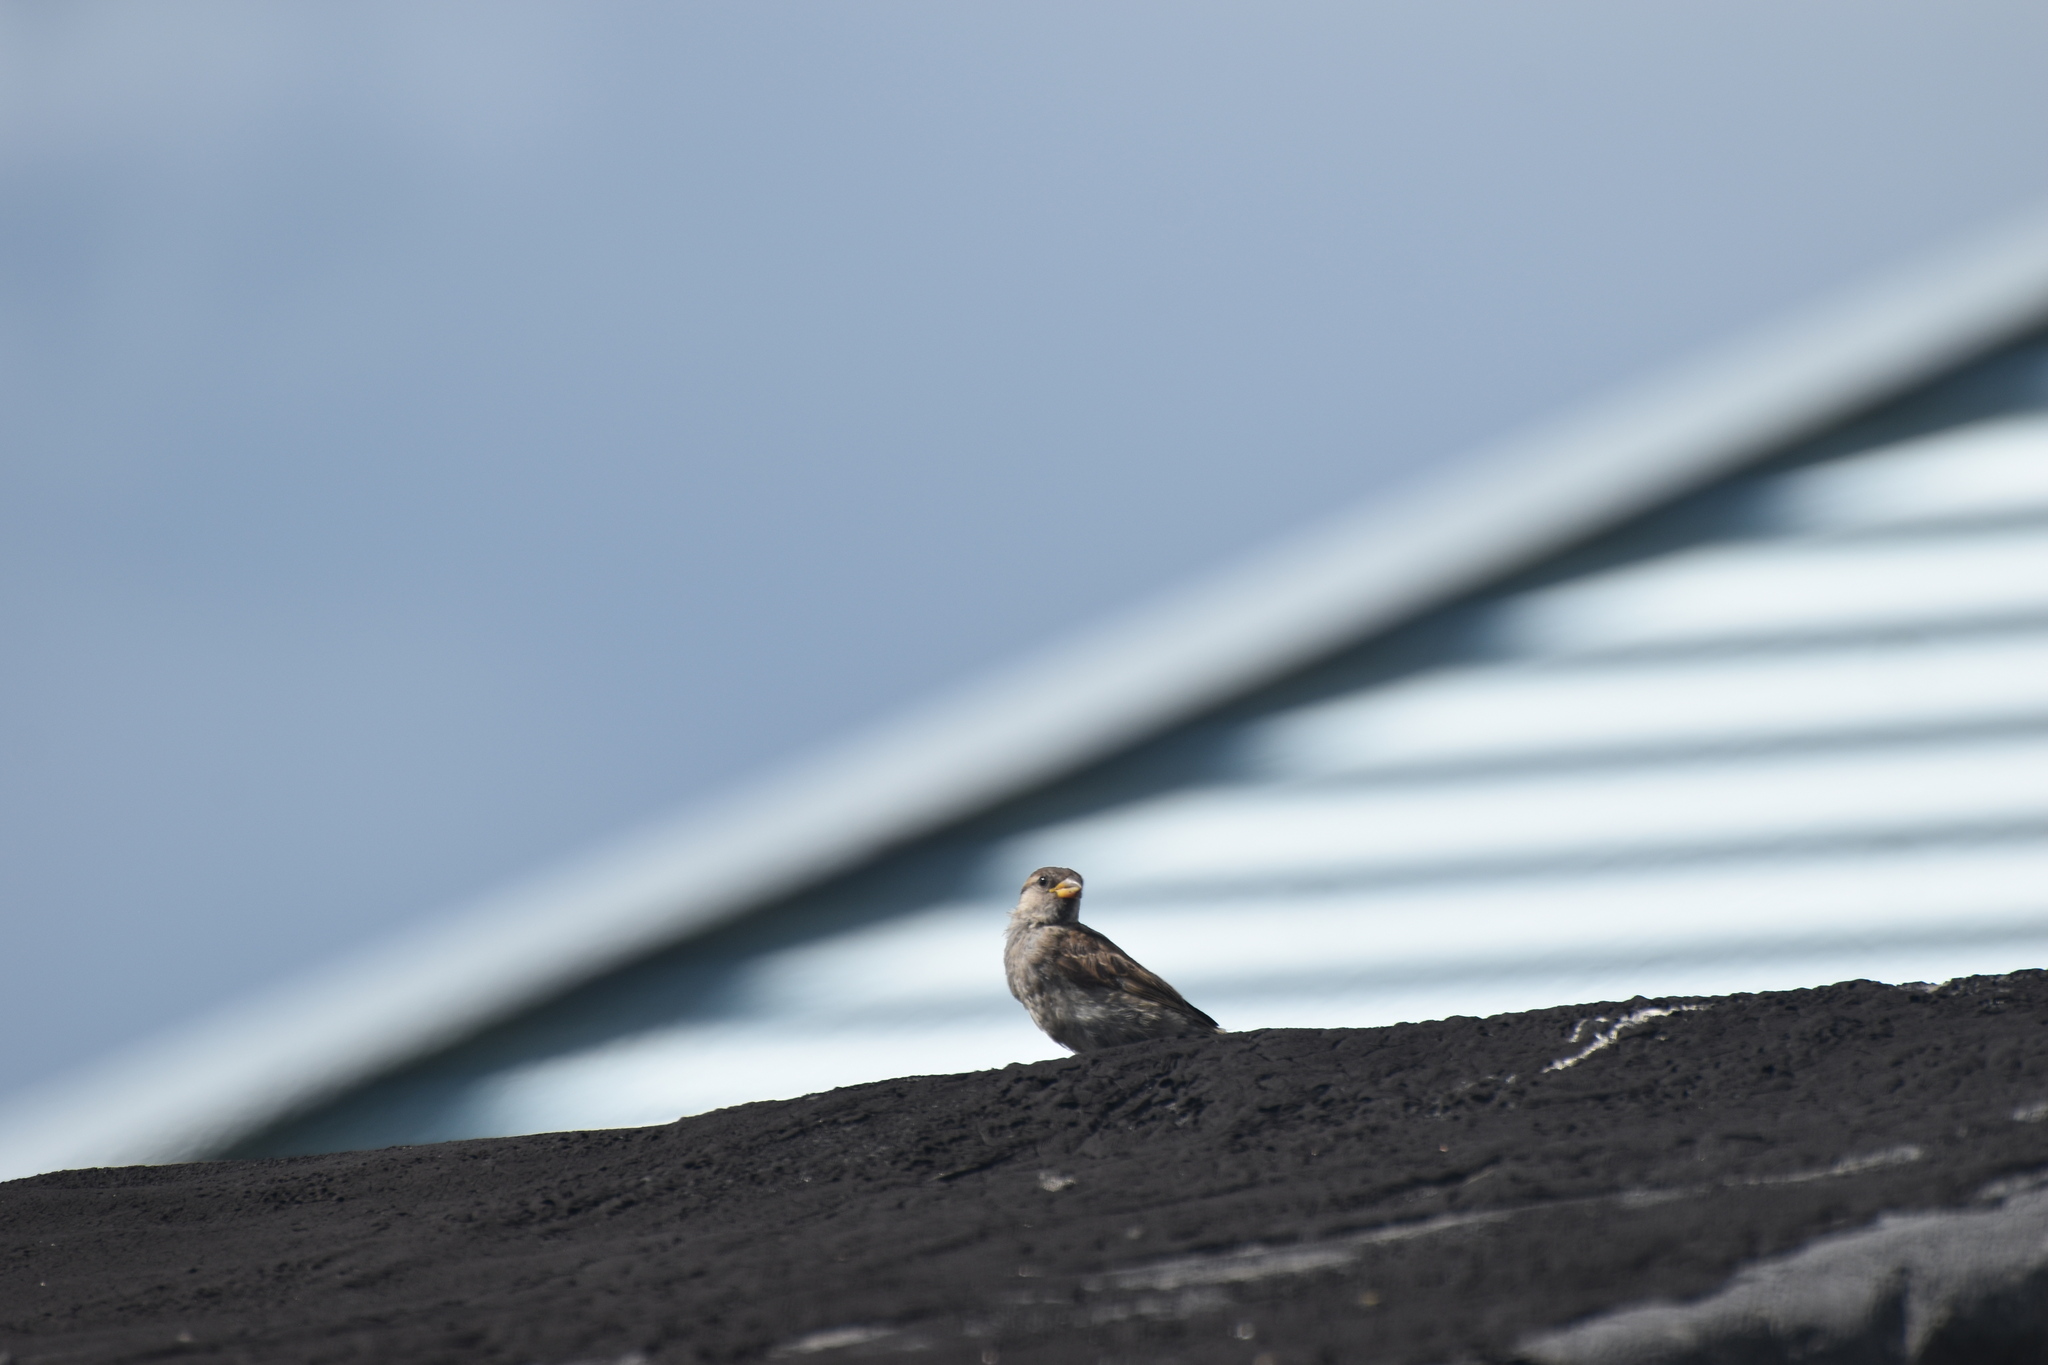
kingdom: Animalia
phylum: Chordata
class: Aves
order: Passeriformes
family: Passeridae
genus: Passer
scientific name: Passer domesticus
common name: House sparrow
